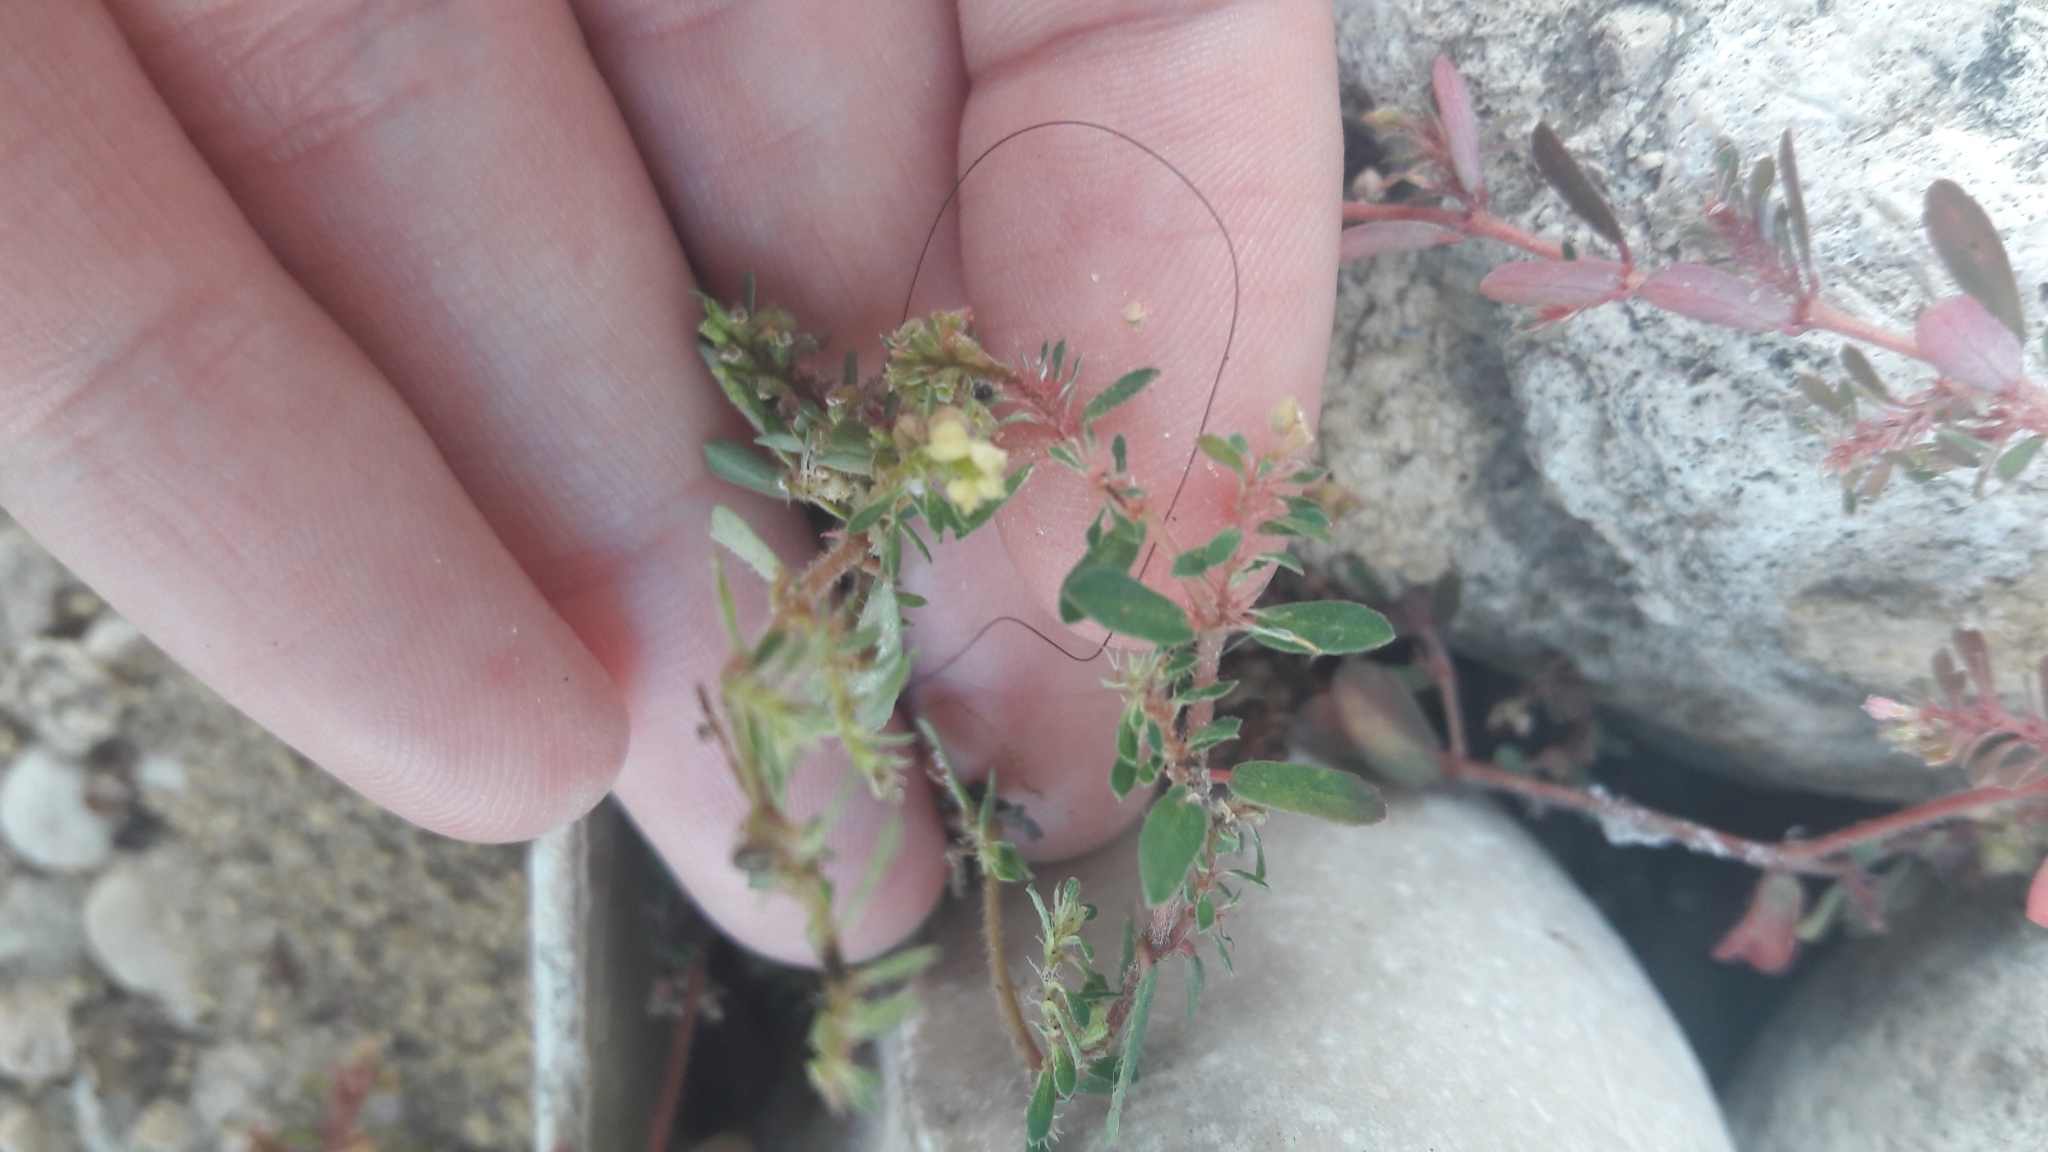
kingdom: Plantae
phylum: Tracheophyta
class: Magnoliopsida
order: Malpighiales
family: Euphorbiaceae
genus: Euphorbia
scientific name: Euphorbia maculata
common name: Spotted spurge
